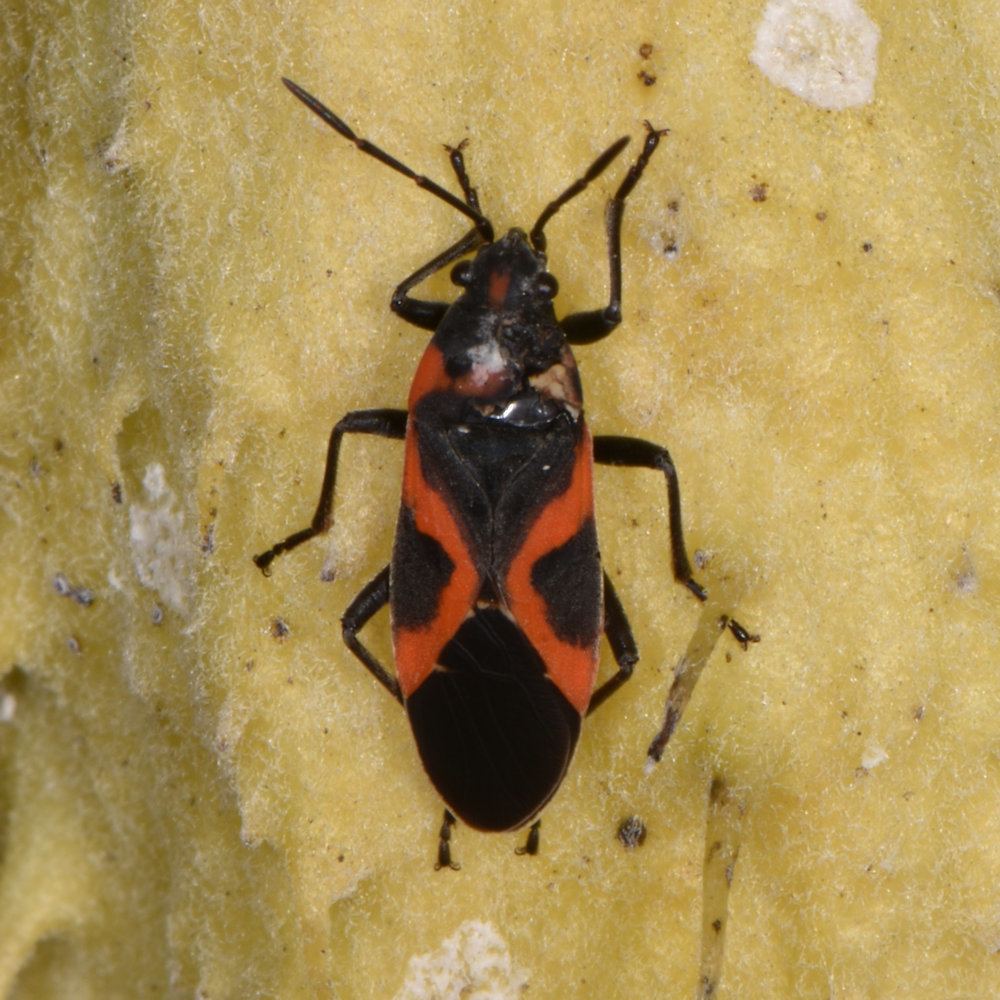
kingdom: Animalia
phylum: Arthropoda
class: Insecta
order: Hemiptera
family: Lygaeidae
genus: Lygaeus
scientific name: Lygaeus kalmii
